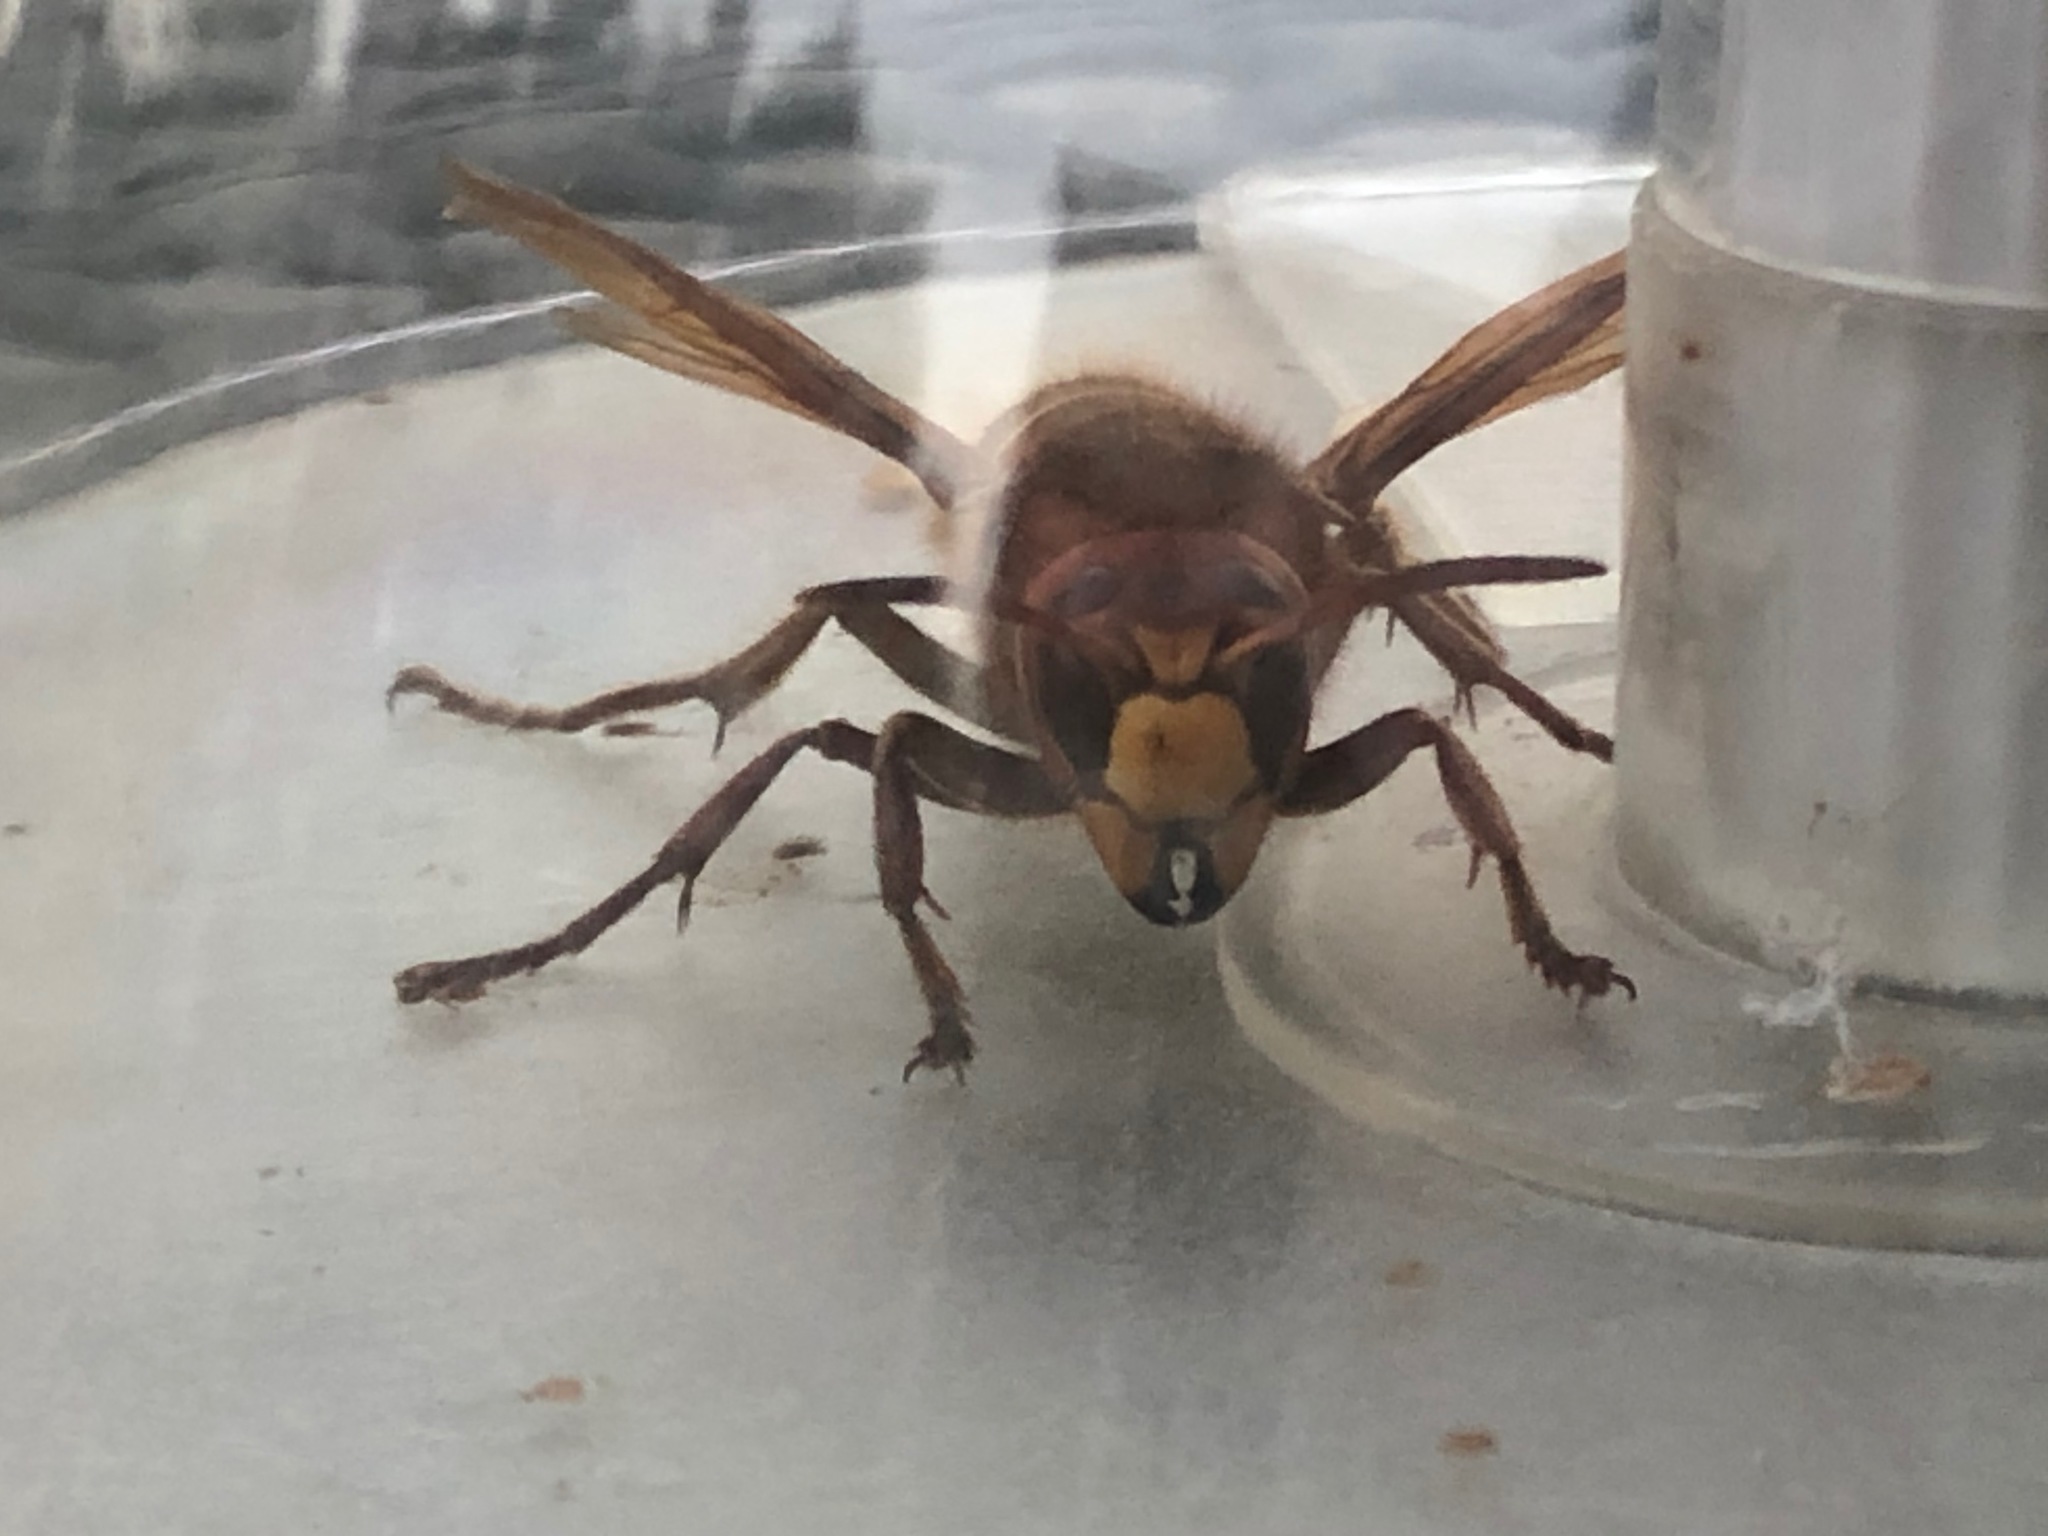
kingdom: Animalia
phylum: Arthropoda
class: Insecta
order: Hymenoptera
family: Vespidae
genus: Vespa
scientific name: Vespa crabro
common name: Hornet
